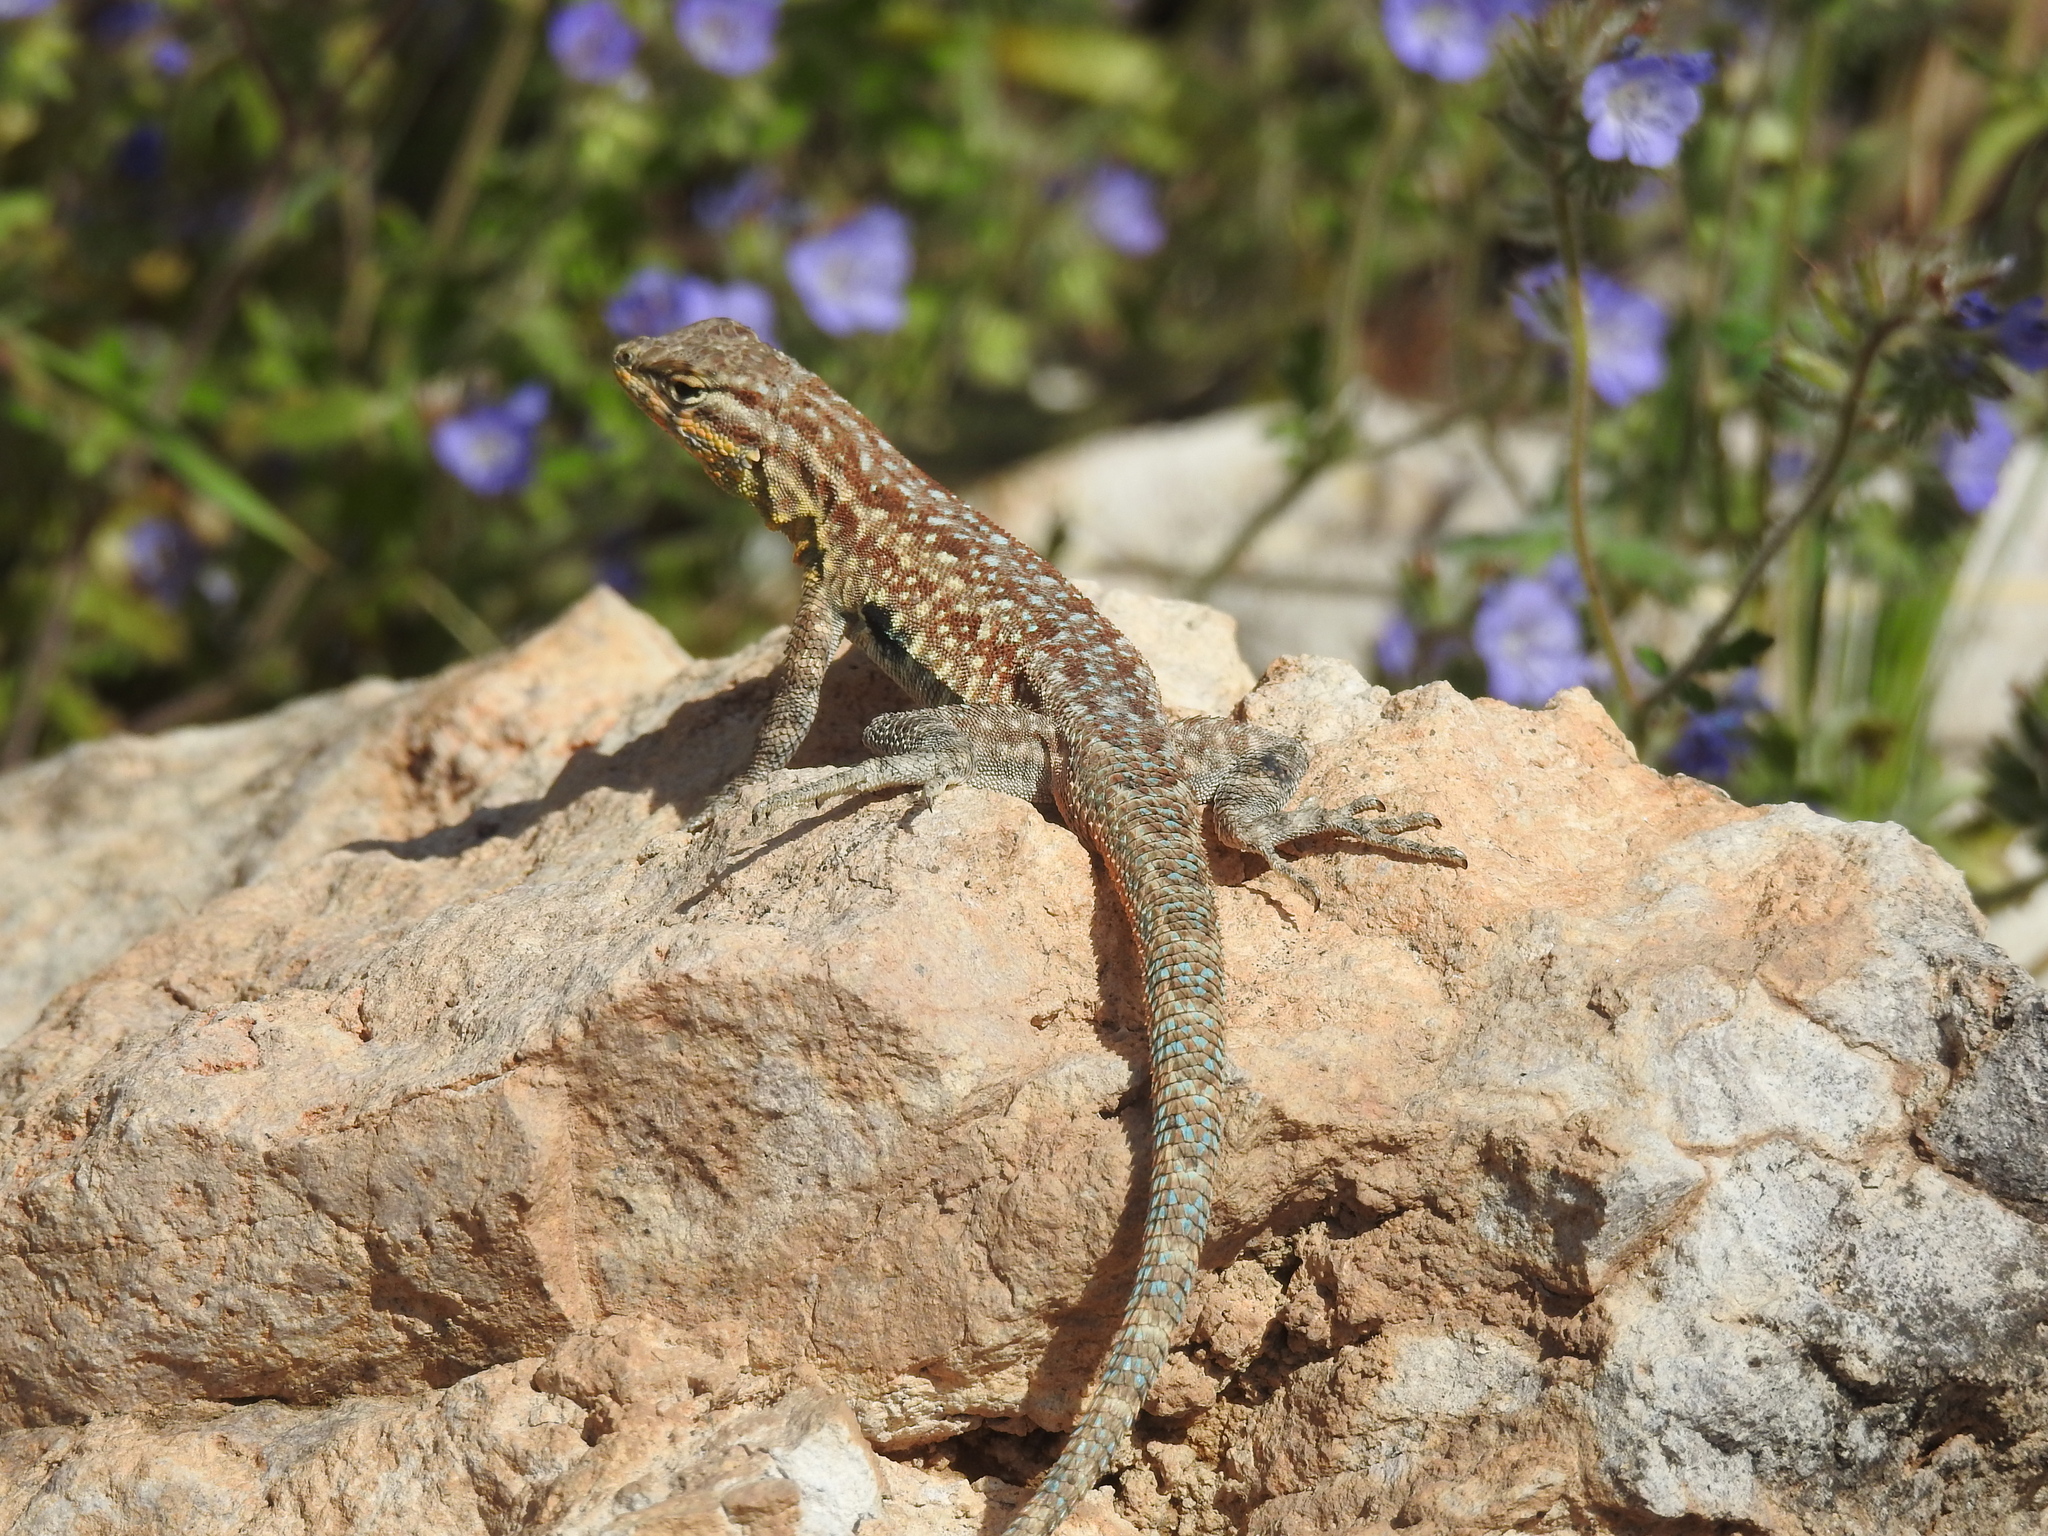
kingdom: Animalia
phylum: Chordata
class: Squamata
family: Phrynosomatidae
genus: Uta
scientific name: Uta stansburiana
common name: Side-blotched lizard
